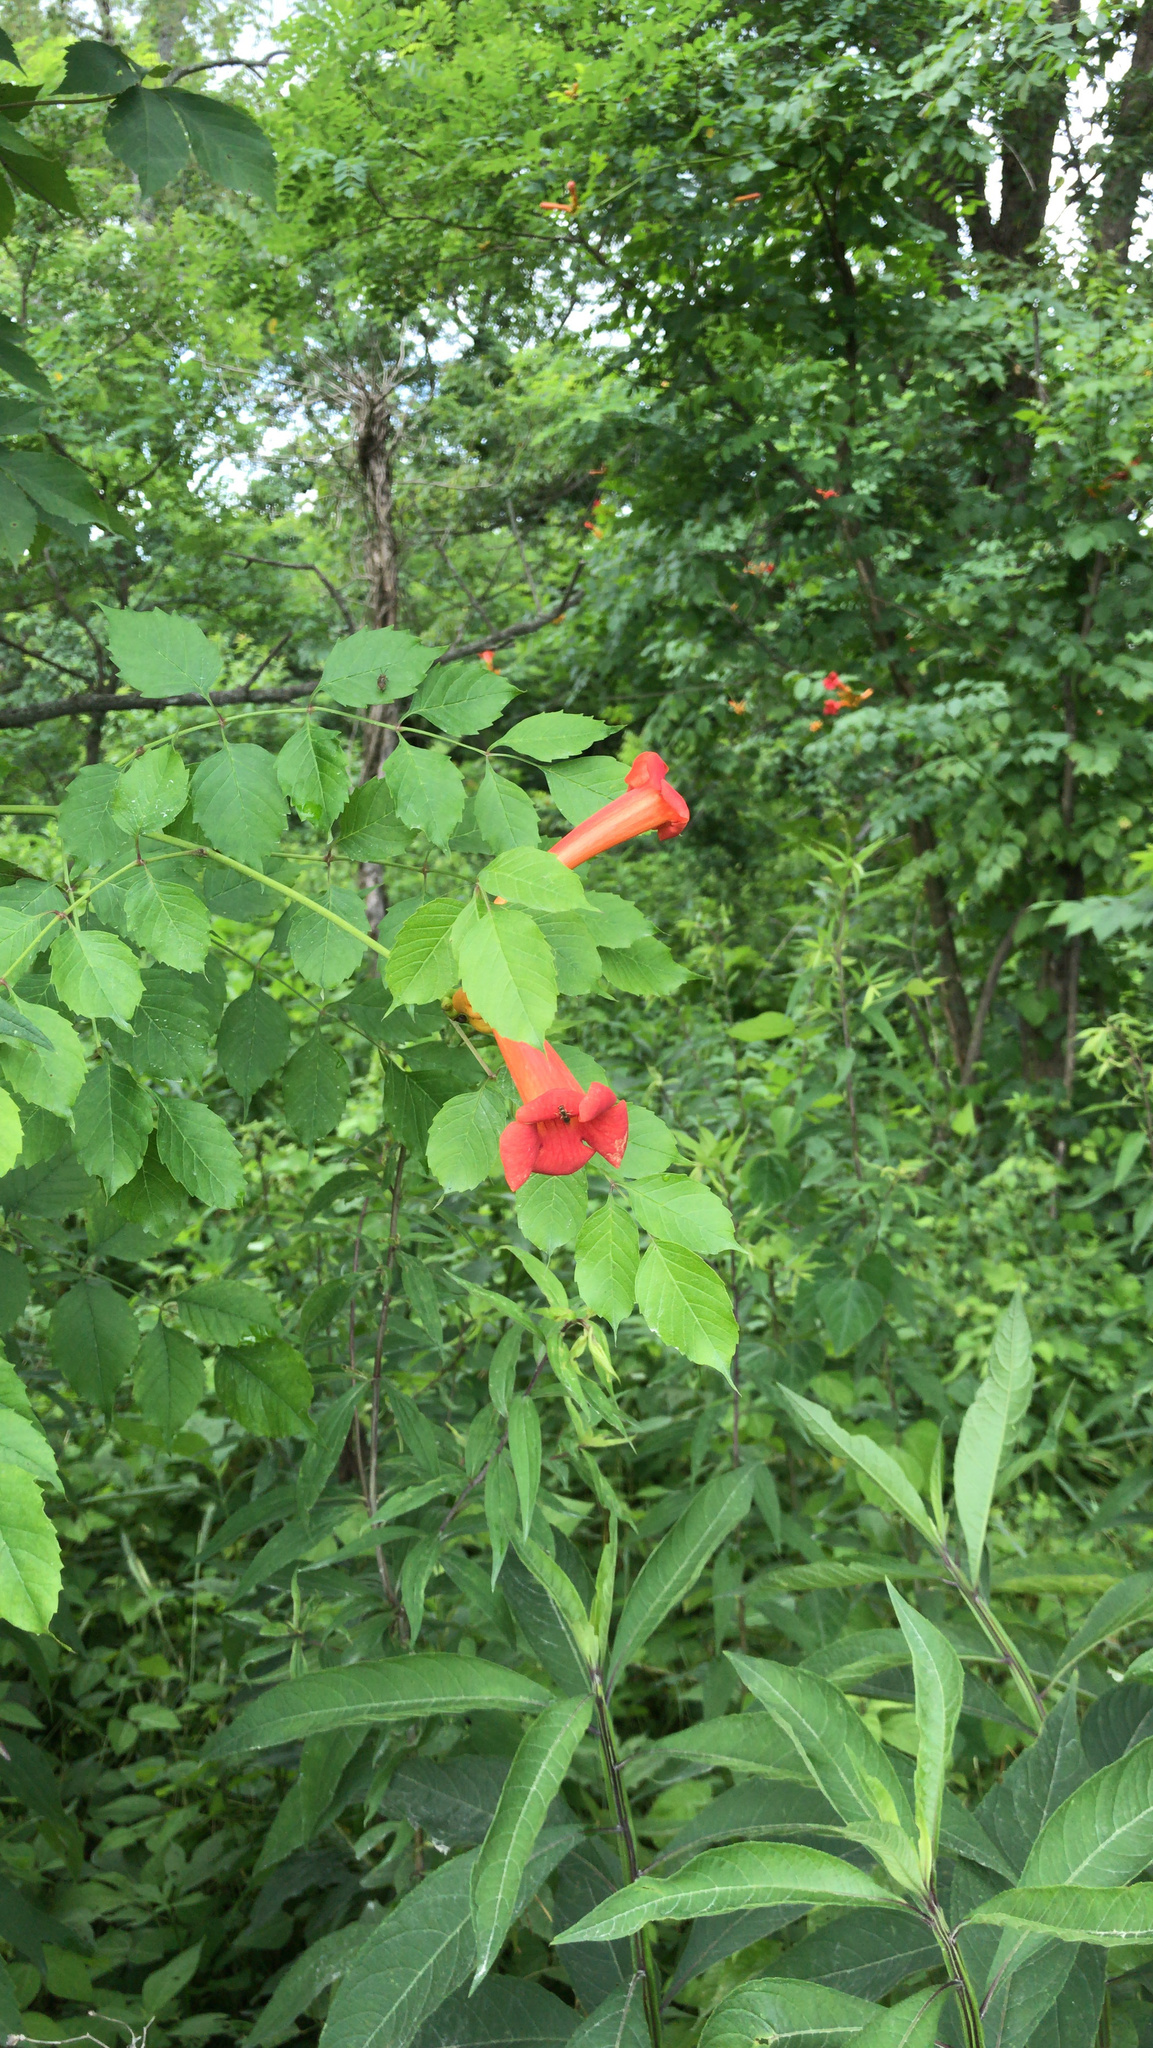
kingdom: Plantae
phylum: Tracheophyta
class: Magnoliopsida
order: Lamiales
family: Bignoniaceae
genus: Campsis
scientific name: Campsis radicans
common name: Trumpet-creeper
